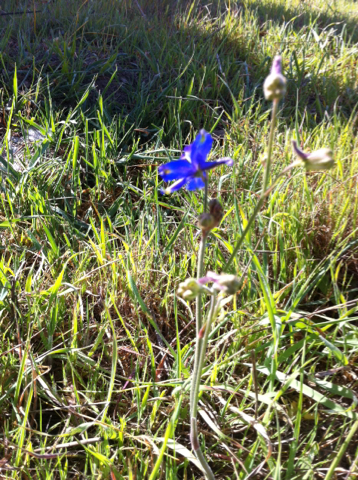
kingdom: Plantae
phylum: Tracheophyta
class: Magnoliopsida
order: Ranunculales
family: Ranunculaceae
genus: Delphinium
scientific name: Delphinium variegatum
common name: Royal larkspur
